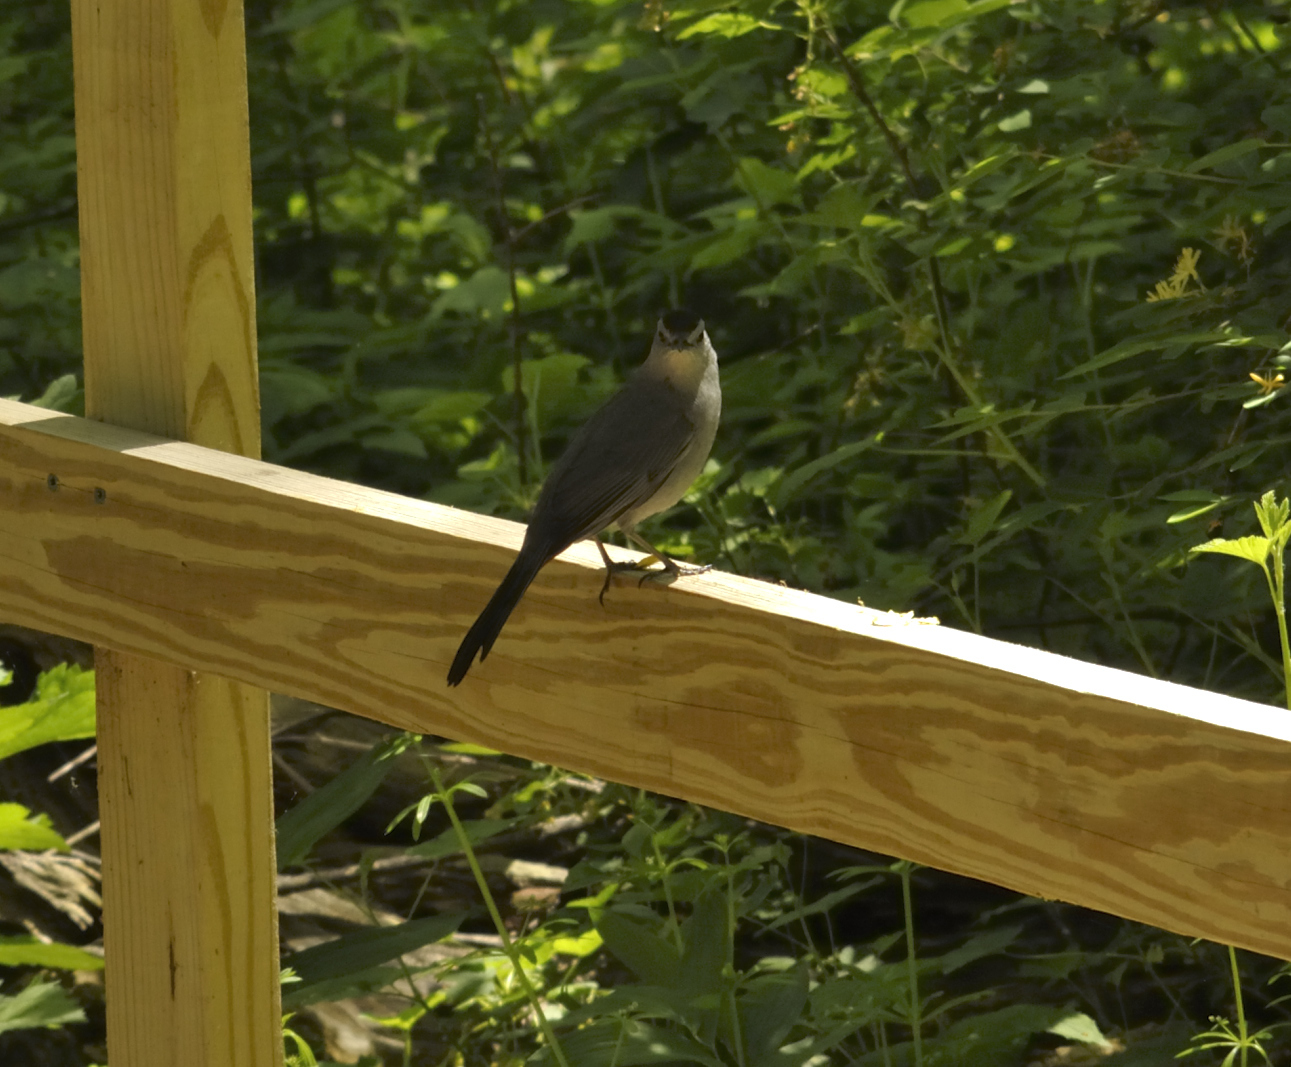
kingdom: Animalia
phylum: Chordata
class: Aves
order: Passeriformes
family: Mimidae
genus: Dumetella
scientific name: Dumetella carolinensis
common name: Gray catbird
